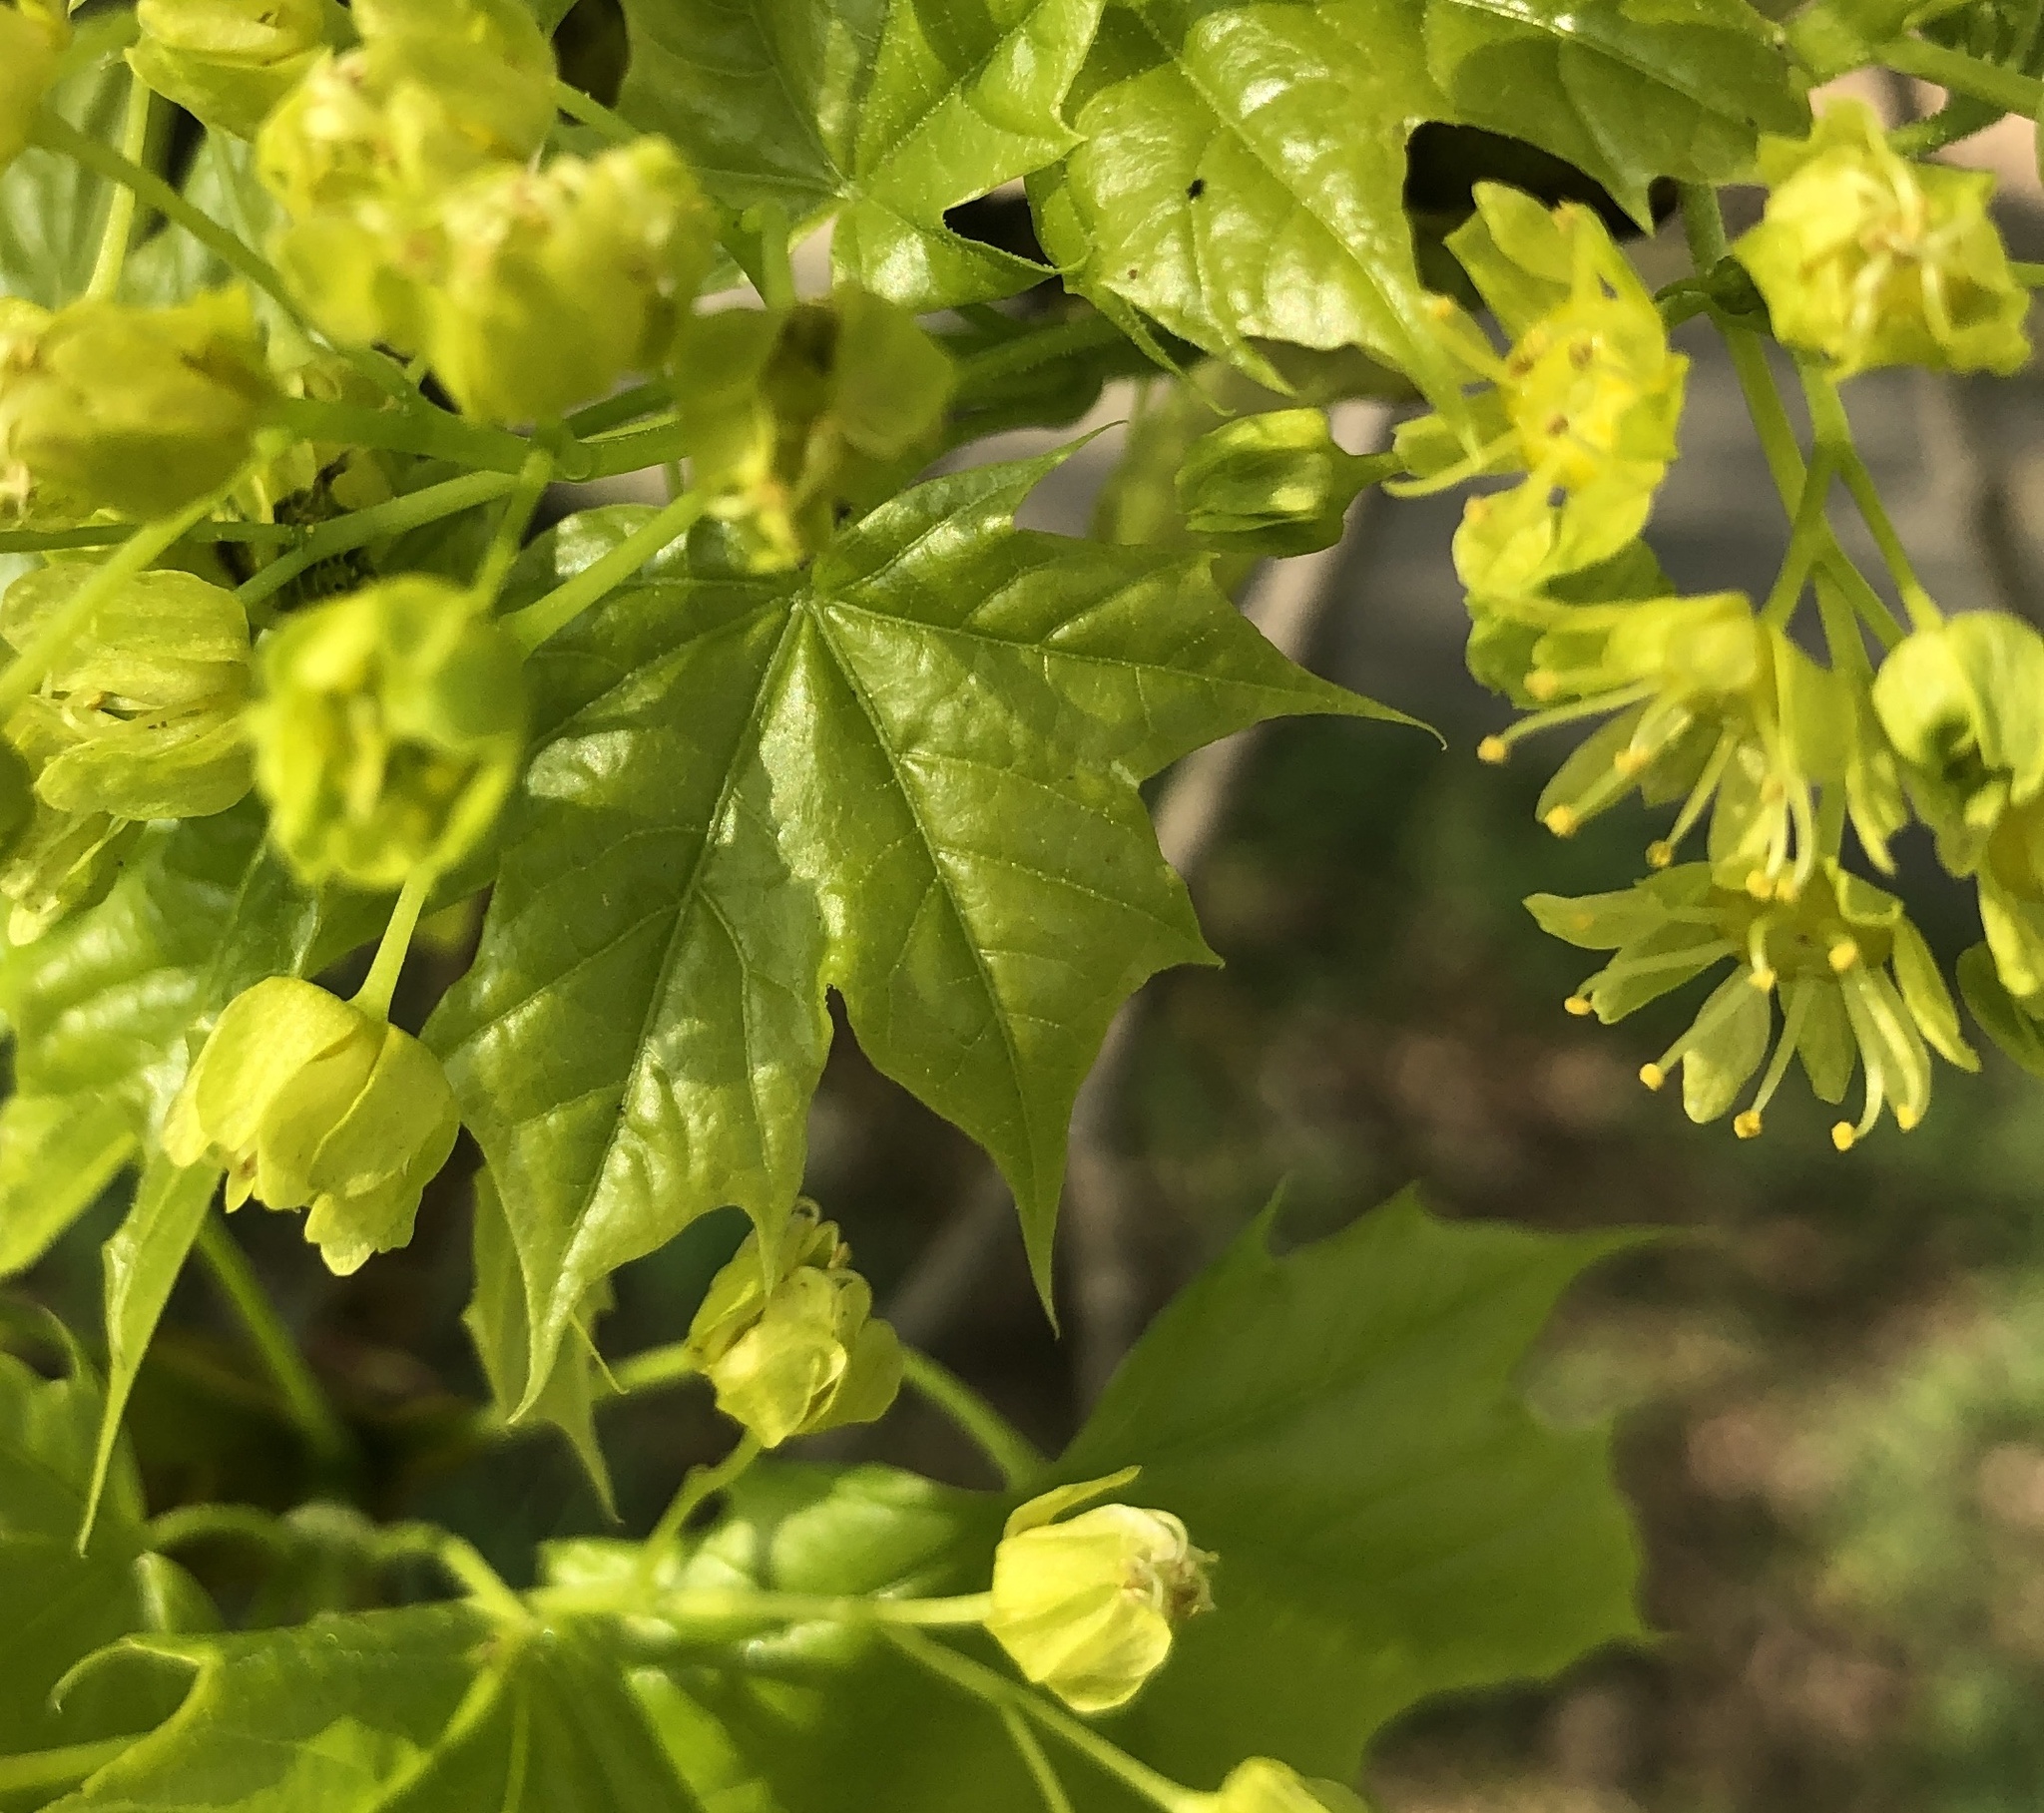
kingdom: Plantae
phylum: Tracheophyta
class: Magnoliopsida
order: Sapindales
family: Sapindaceae
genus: Acer
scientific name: Acer platanoides
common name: Norway maple
